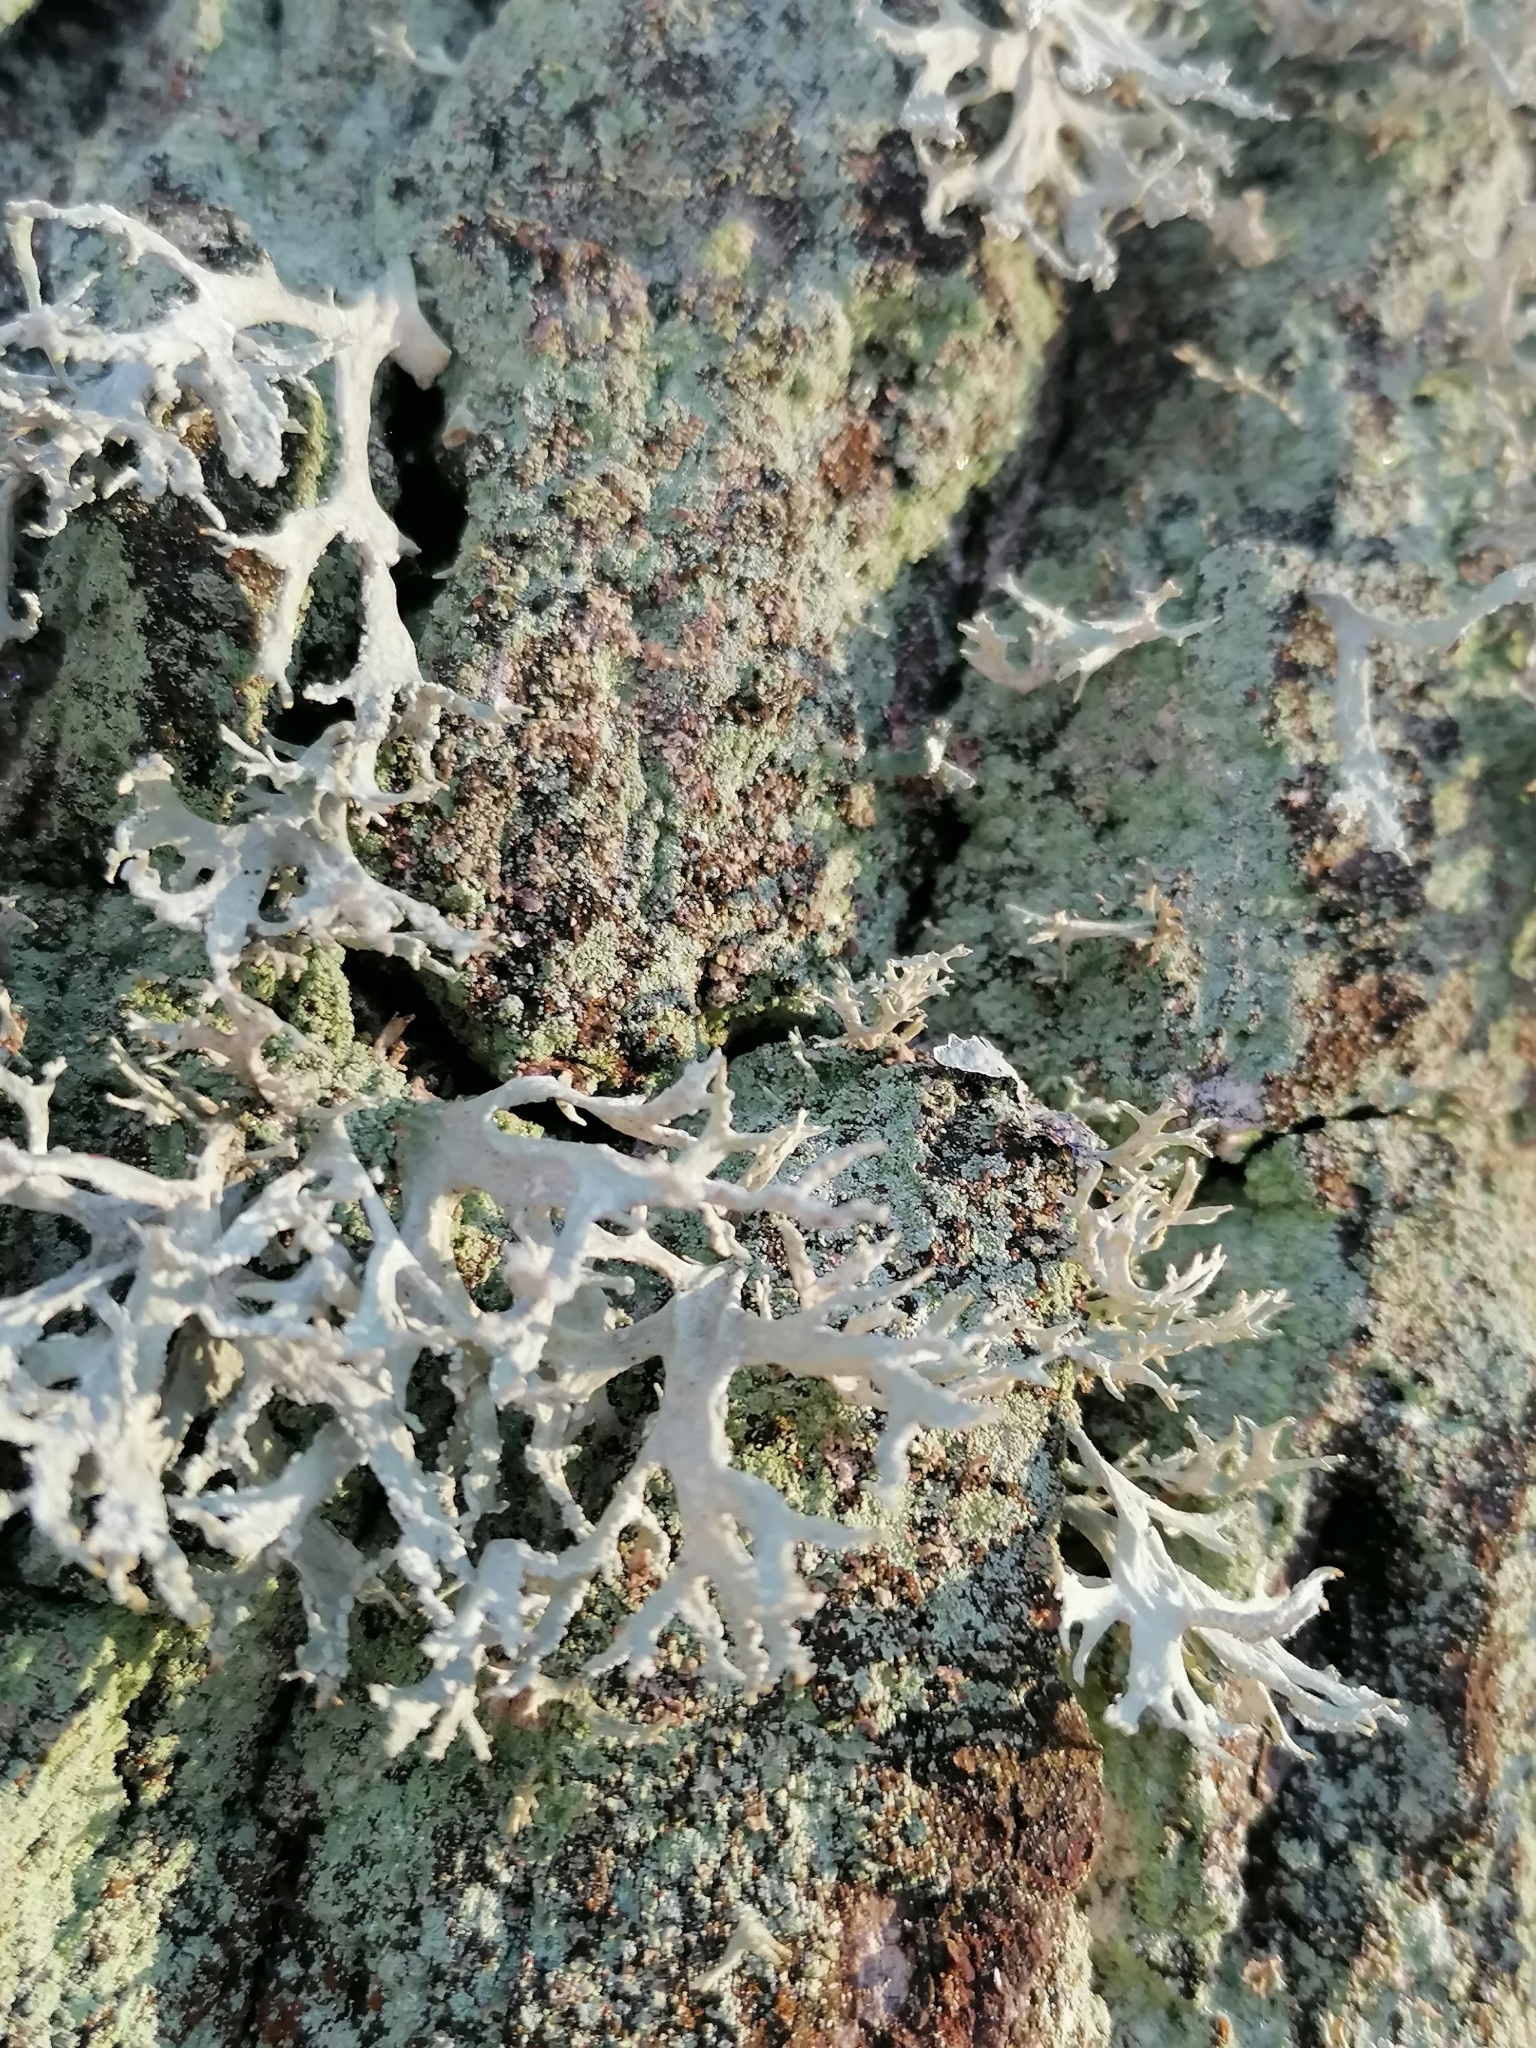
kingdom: Fungi
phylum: Ascomycota
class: Lecanoromycetes
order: Lecanorales
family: Parmeliaceae
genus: Evernia
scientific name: Evernia prunastri
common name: Oak moss
